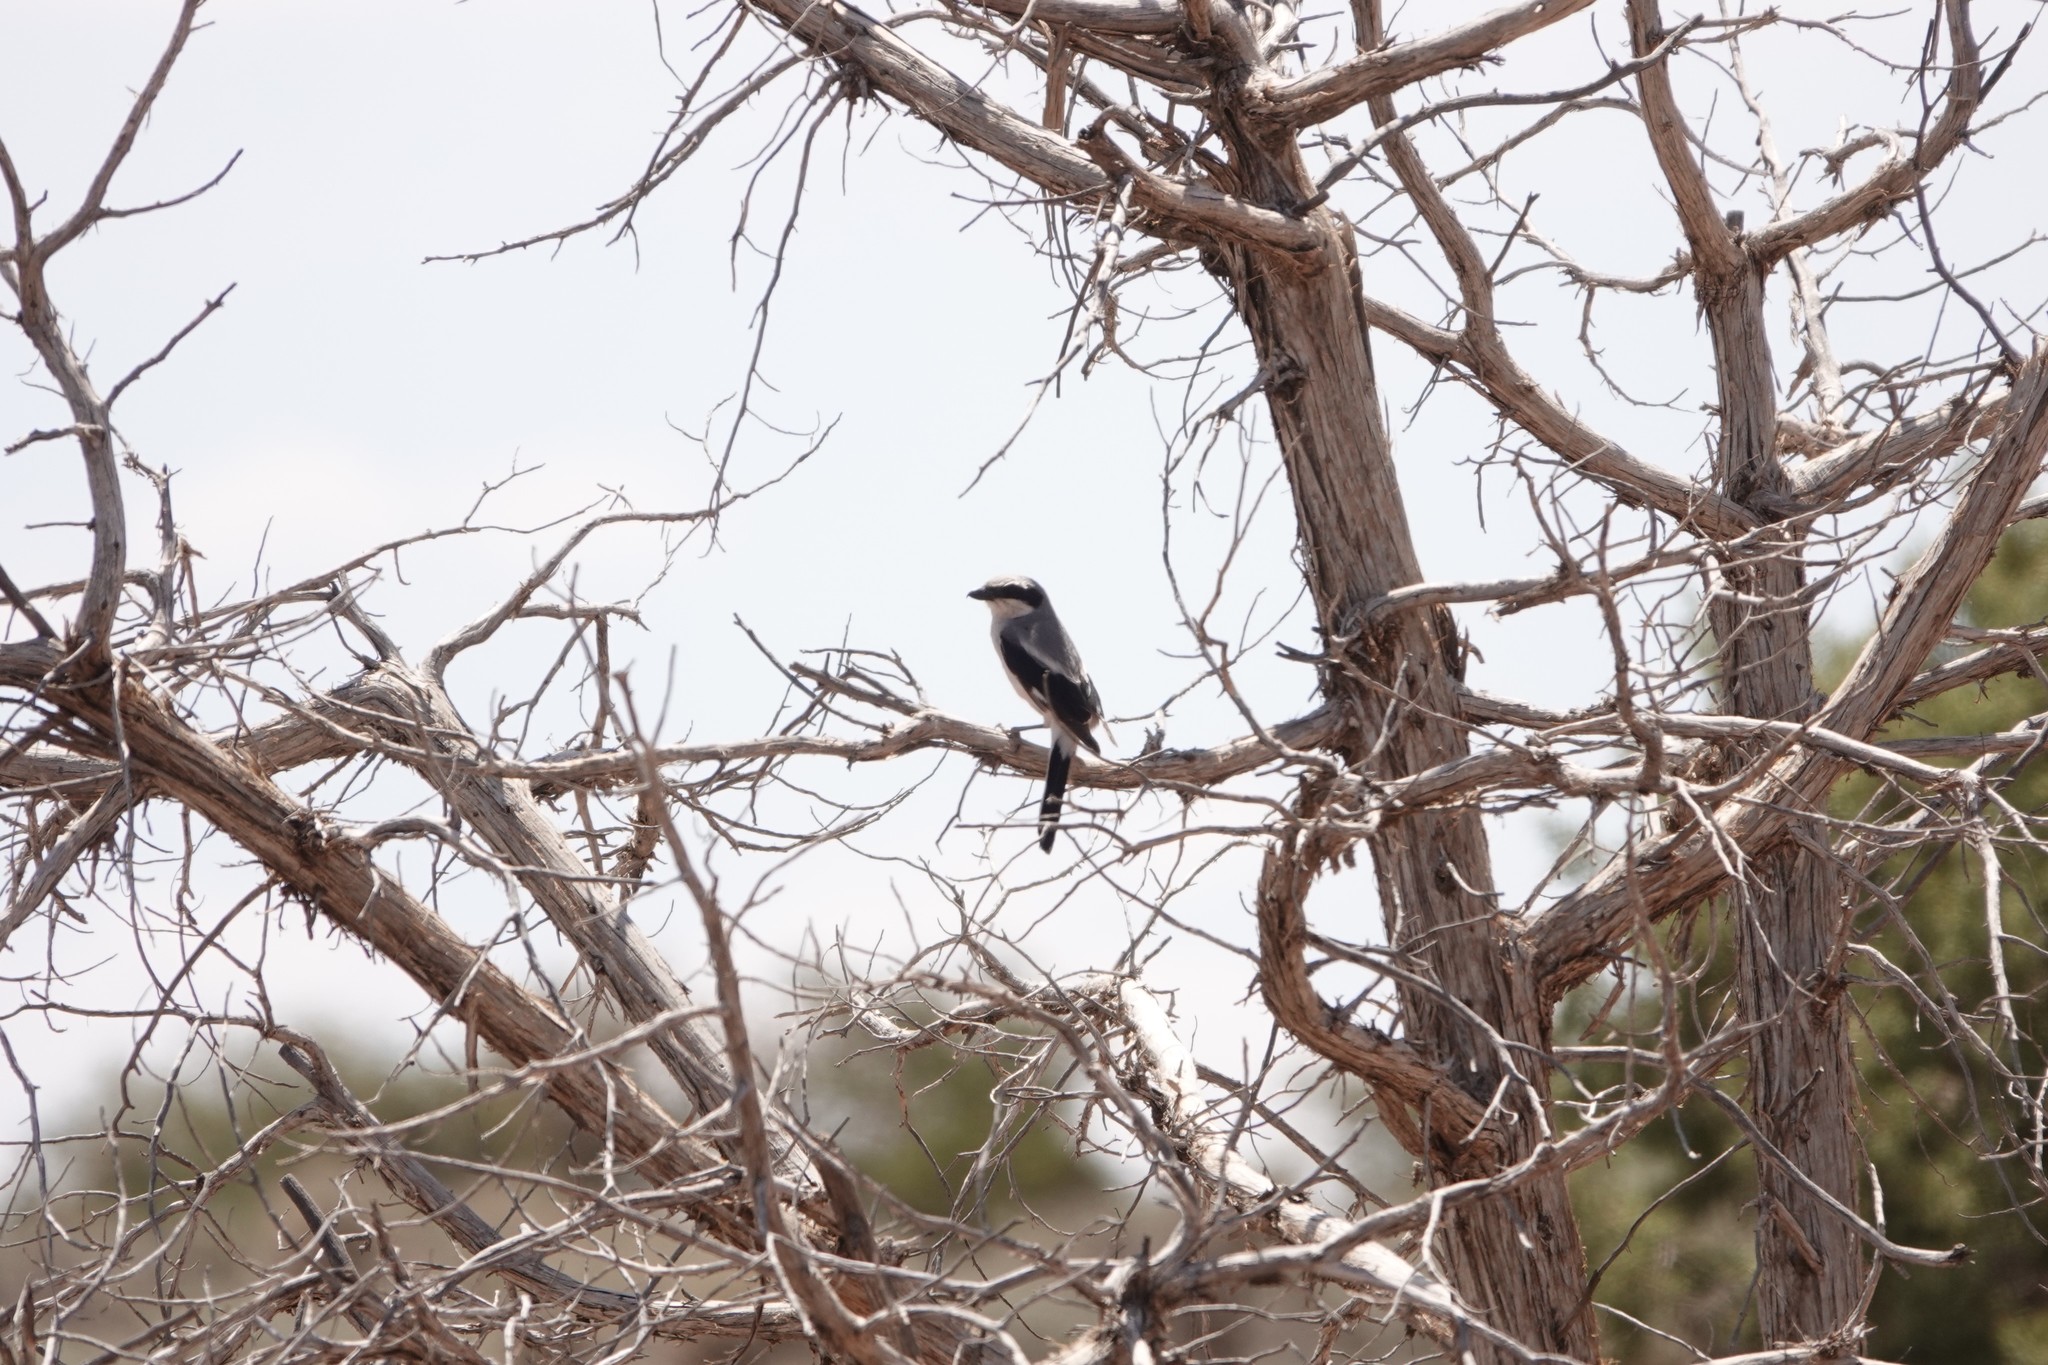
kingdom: Animalia
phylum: Chordata
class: Aves
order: Passeriformes
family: Laniidae
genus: Lanius
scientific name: Lanius ludovicianus
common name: Loggerhead shrike
